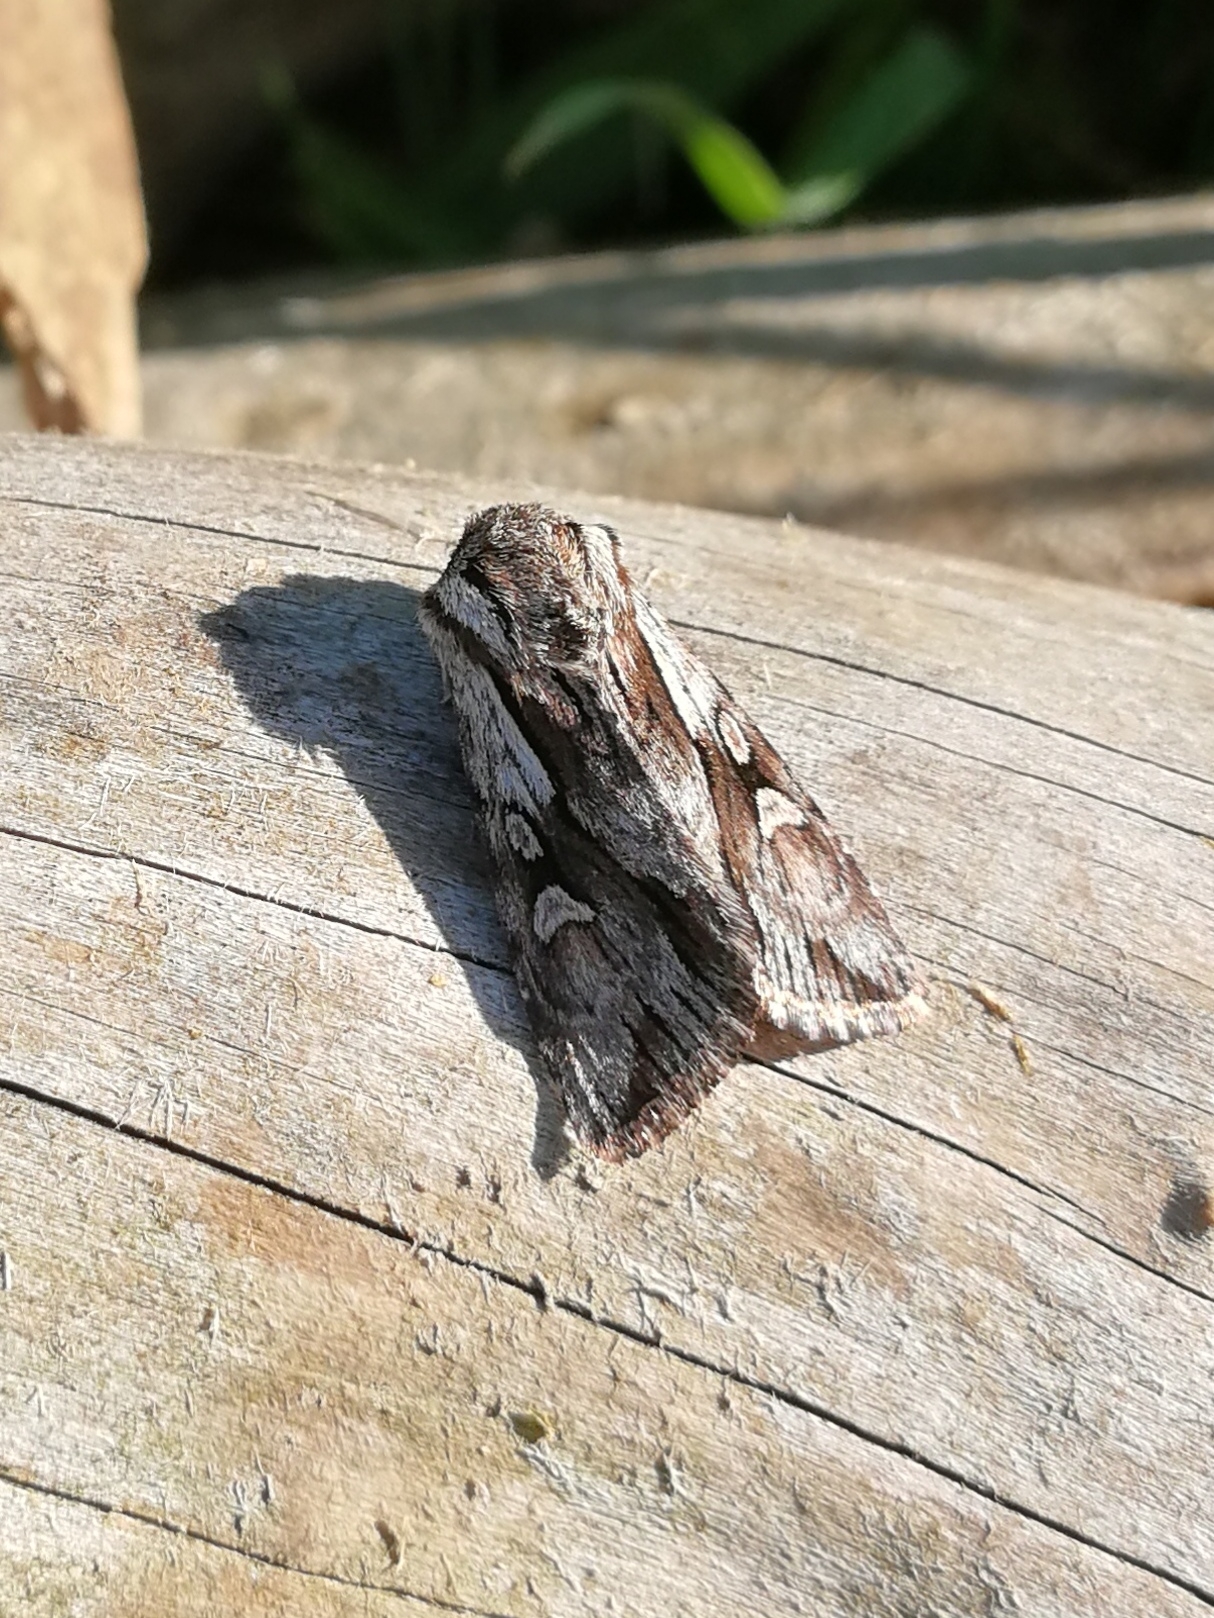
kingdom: Animalia
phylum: Arthropoda
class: Insecta
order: Lepidoptera
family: Noctuidae
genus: Chloantha
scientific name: Chloantha hyperici
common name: Pale-shouldered cloud
